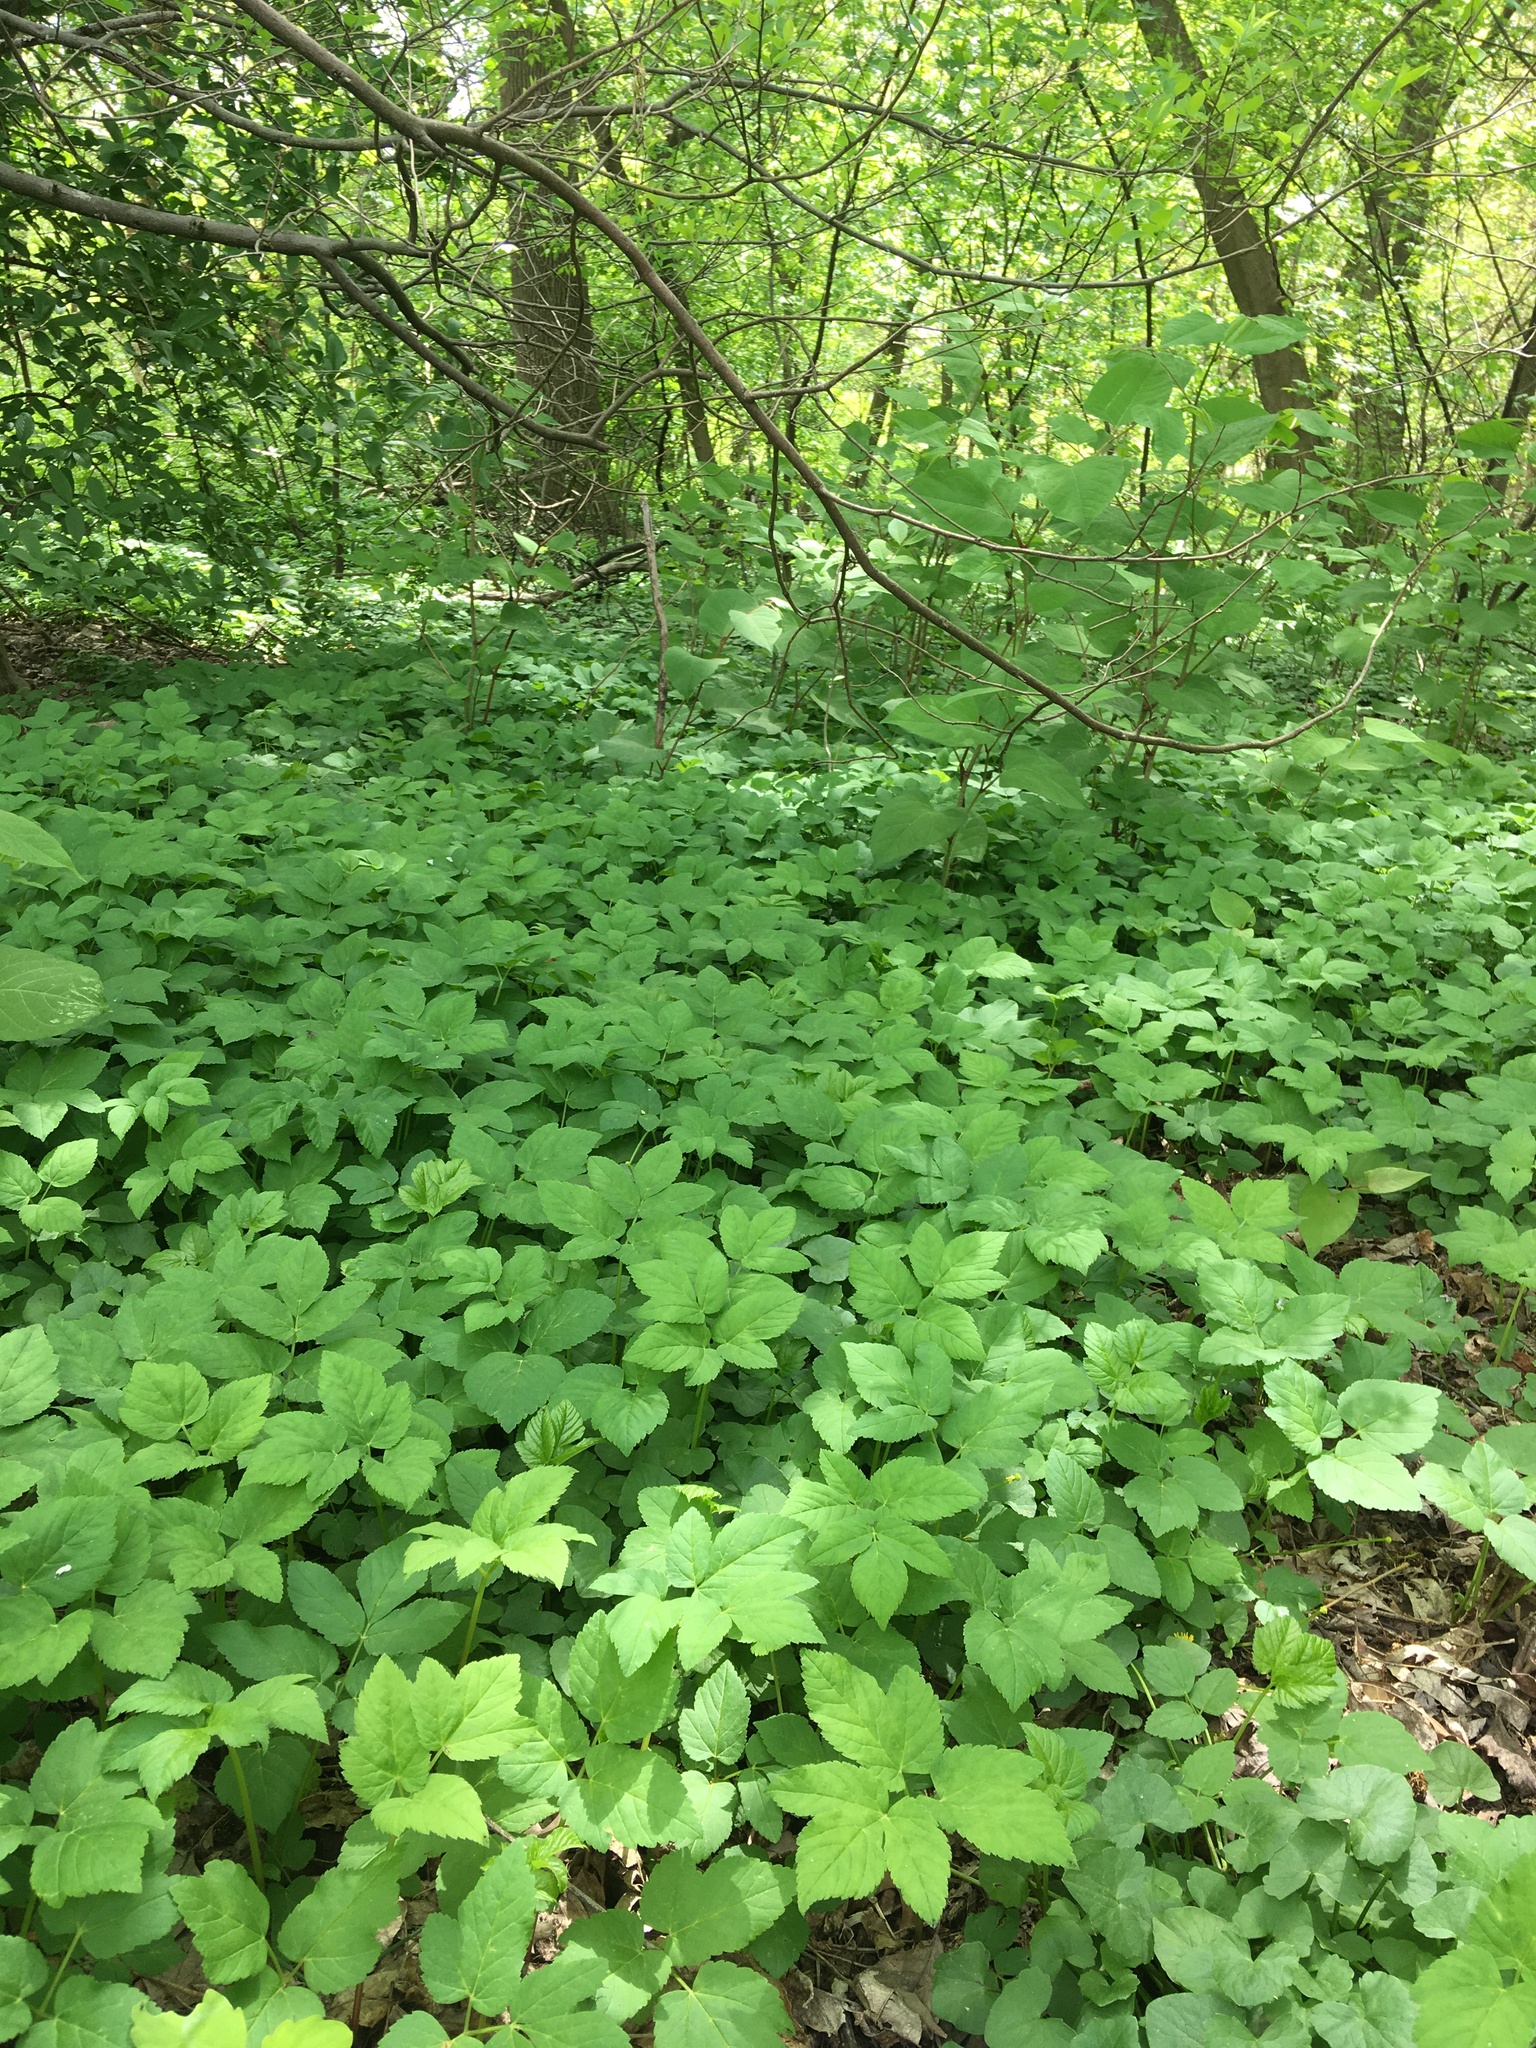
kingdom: Plantae
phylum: Tracheophyta
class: Magnoliopsida
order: Apiales
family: Apiaceae
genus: Aegopodium
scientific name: Aegopodium podagraria
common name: Ground-elder
